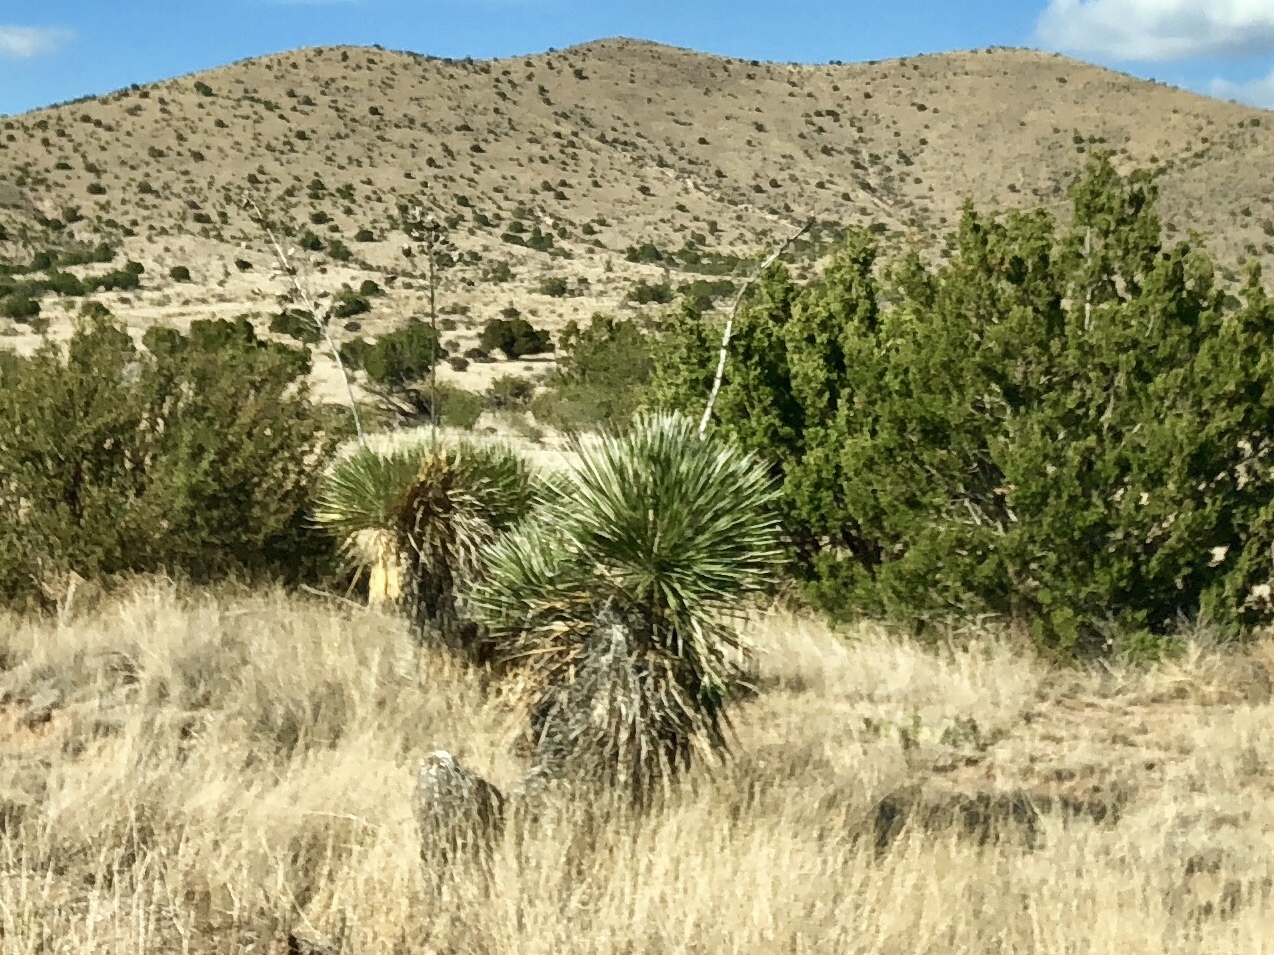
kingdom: Plantae
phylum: Tracheophyta
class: Liliopsida
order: Asparagales
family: Asparagaceae
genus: Yucca
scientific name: Yucca elata
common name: Palmella
